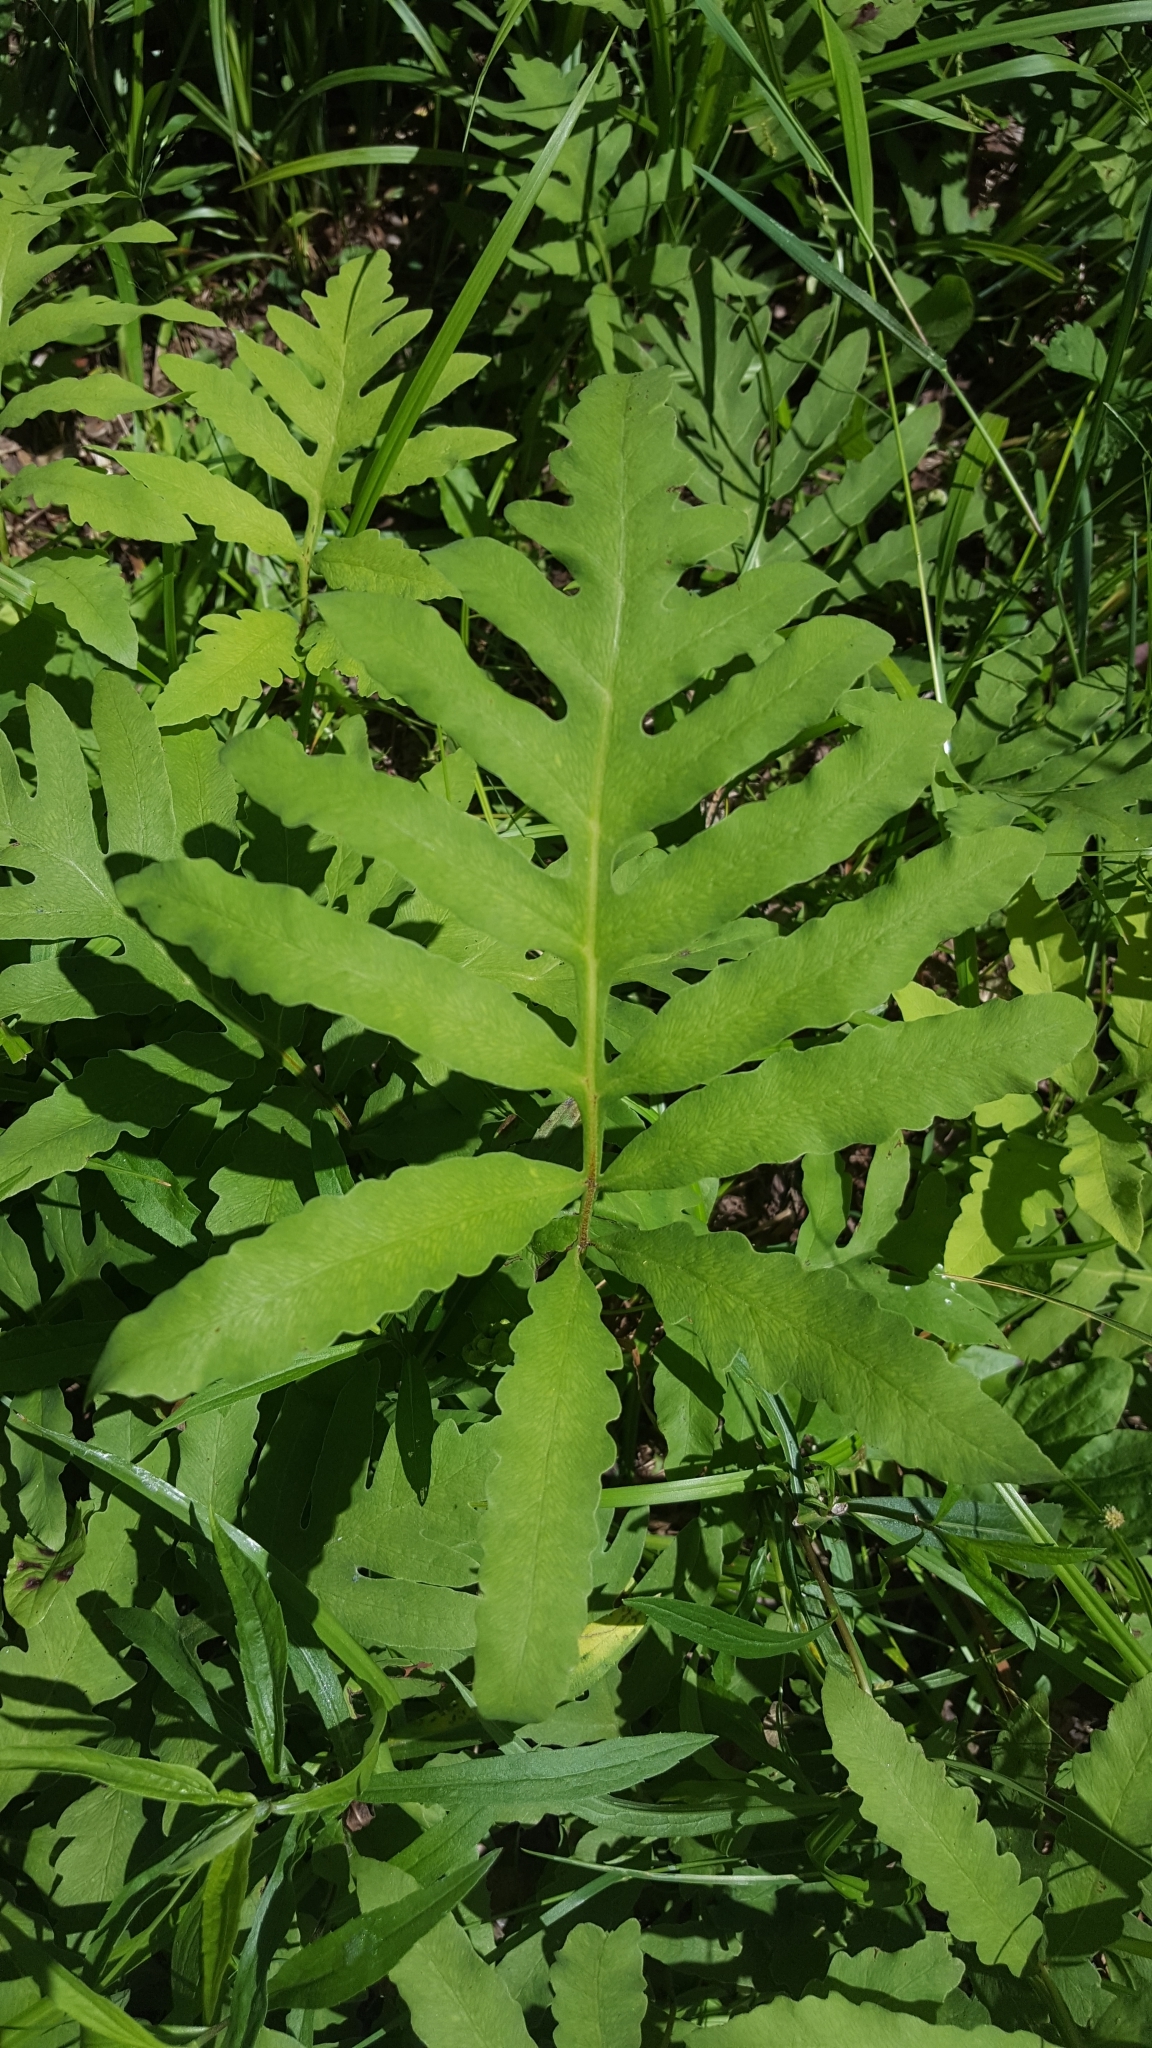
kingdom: Plantae
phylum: Tracheophyta
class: Polypodiopsida
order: Polypodiales
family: Onocleaceae
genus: Onoclea
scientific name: Onoclea sensibilis
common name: Sensitive fern
